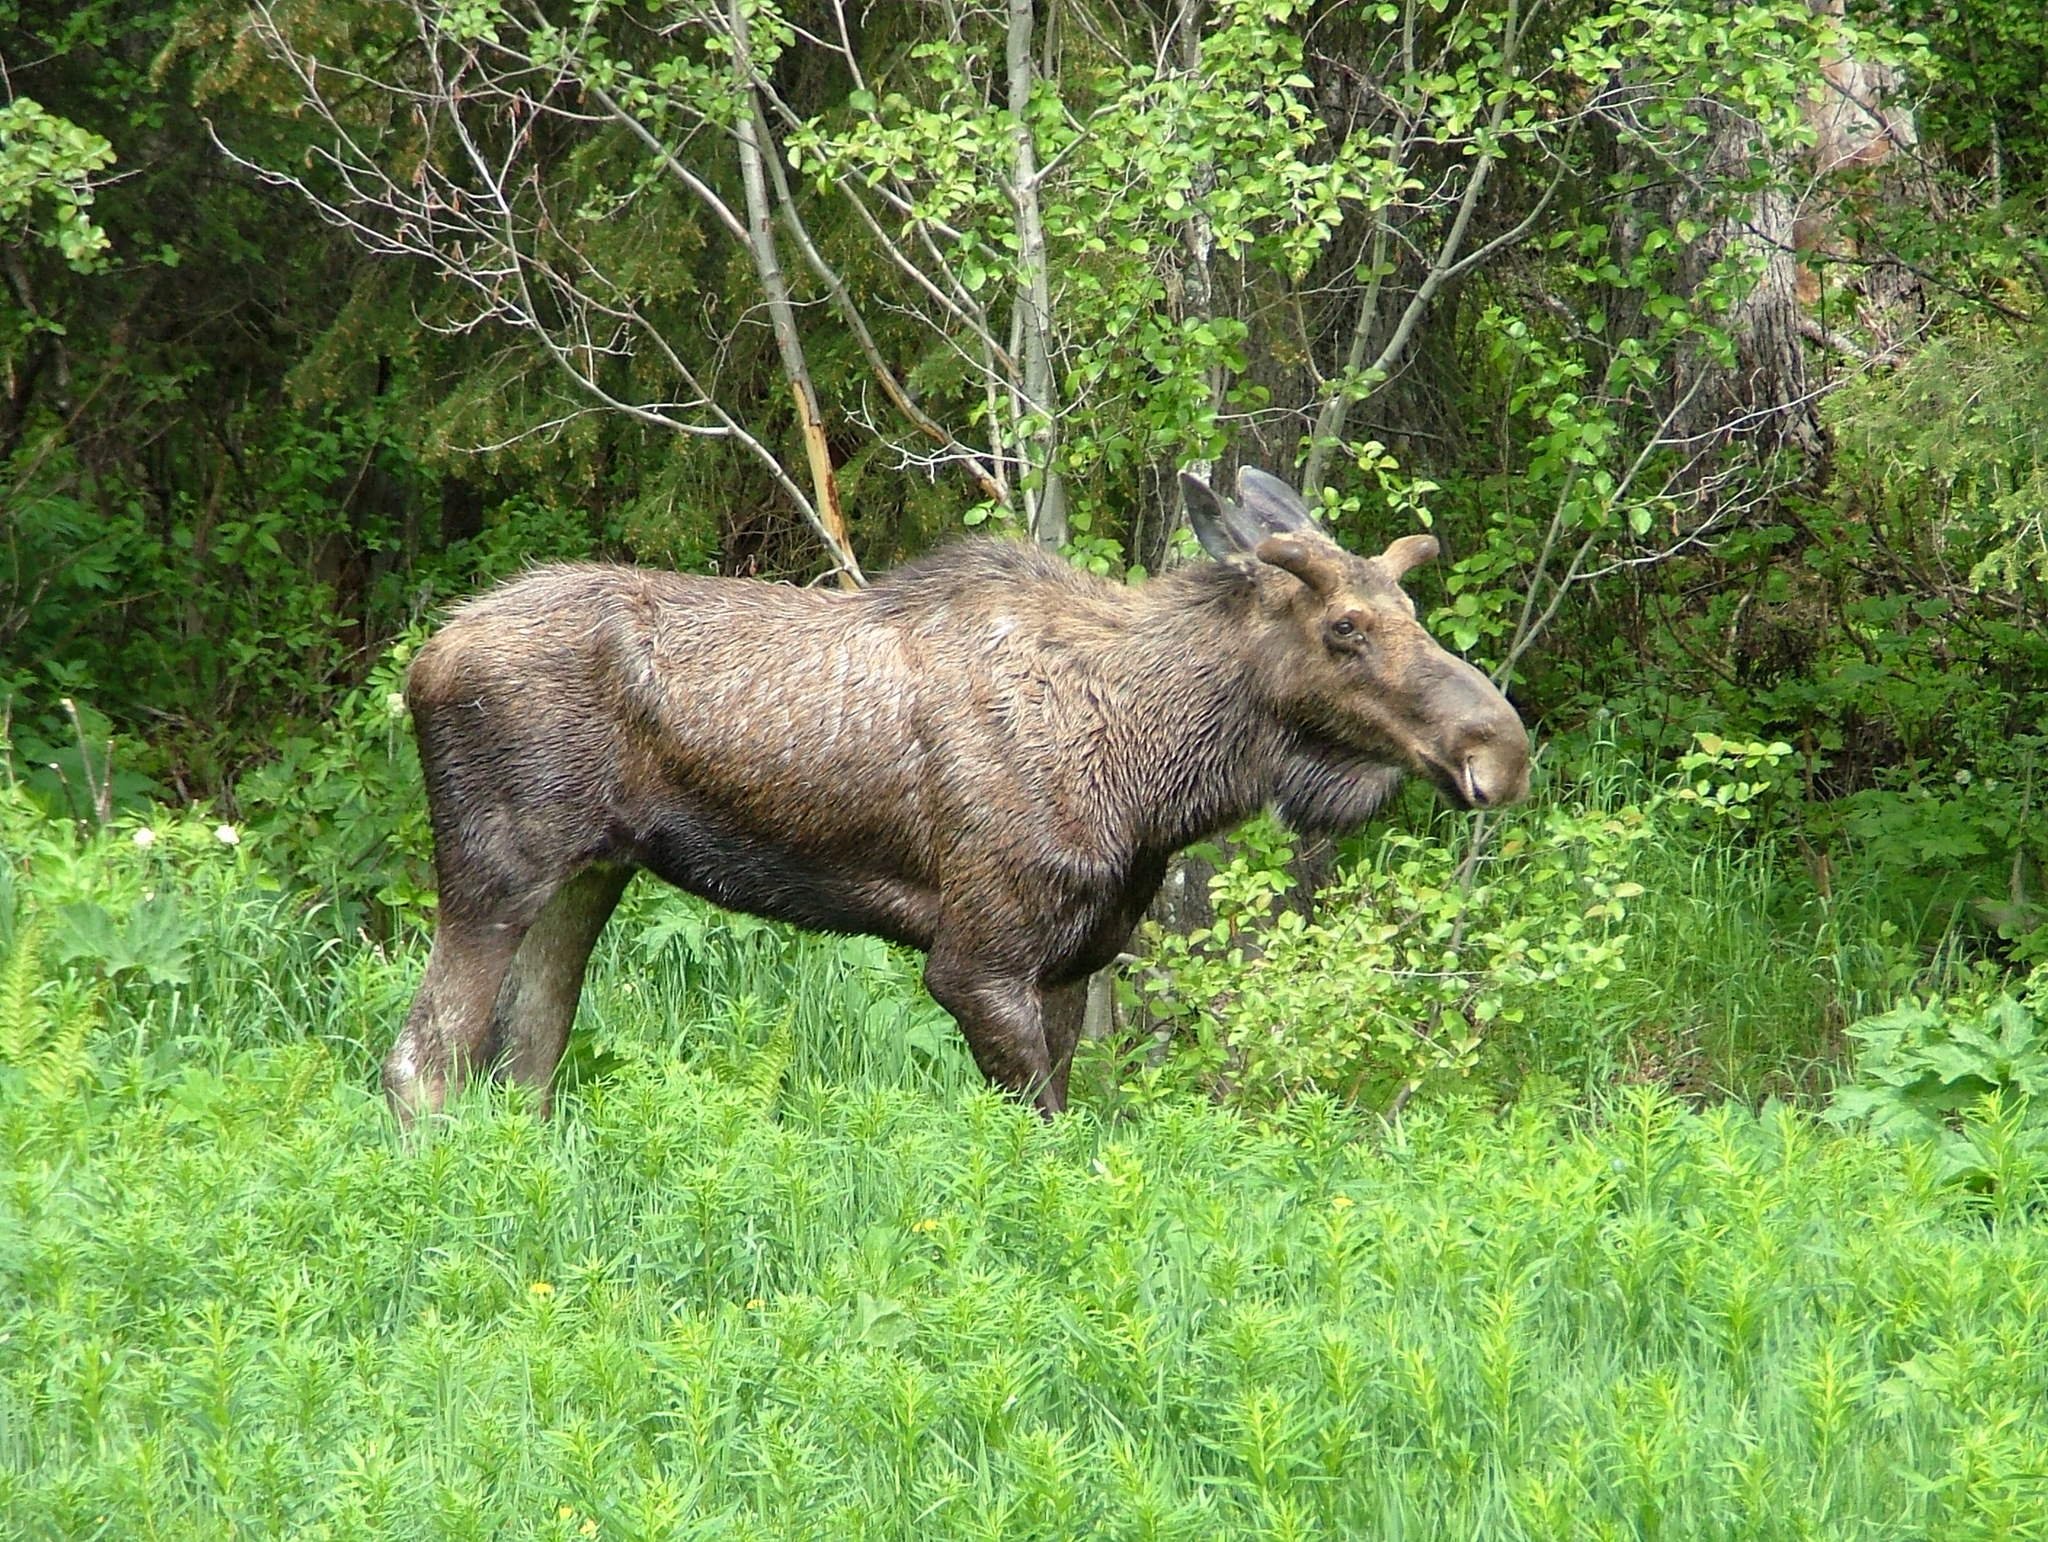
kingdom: Animalia
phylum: Chordata
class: Mammalia
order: Artiodactyla
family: Cervidae
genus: Alces
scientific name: Alces alces
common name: Moose
